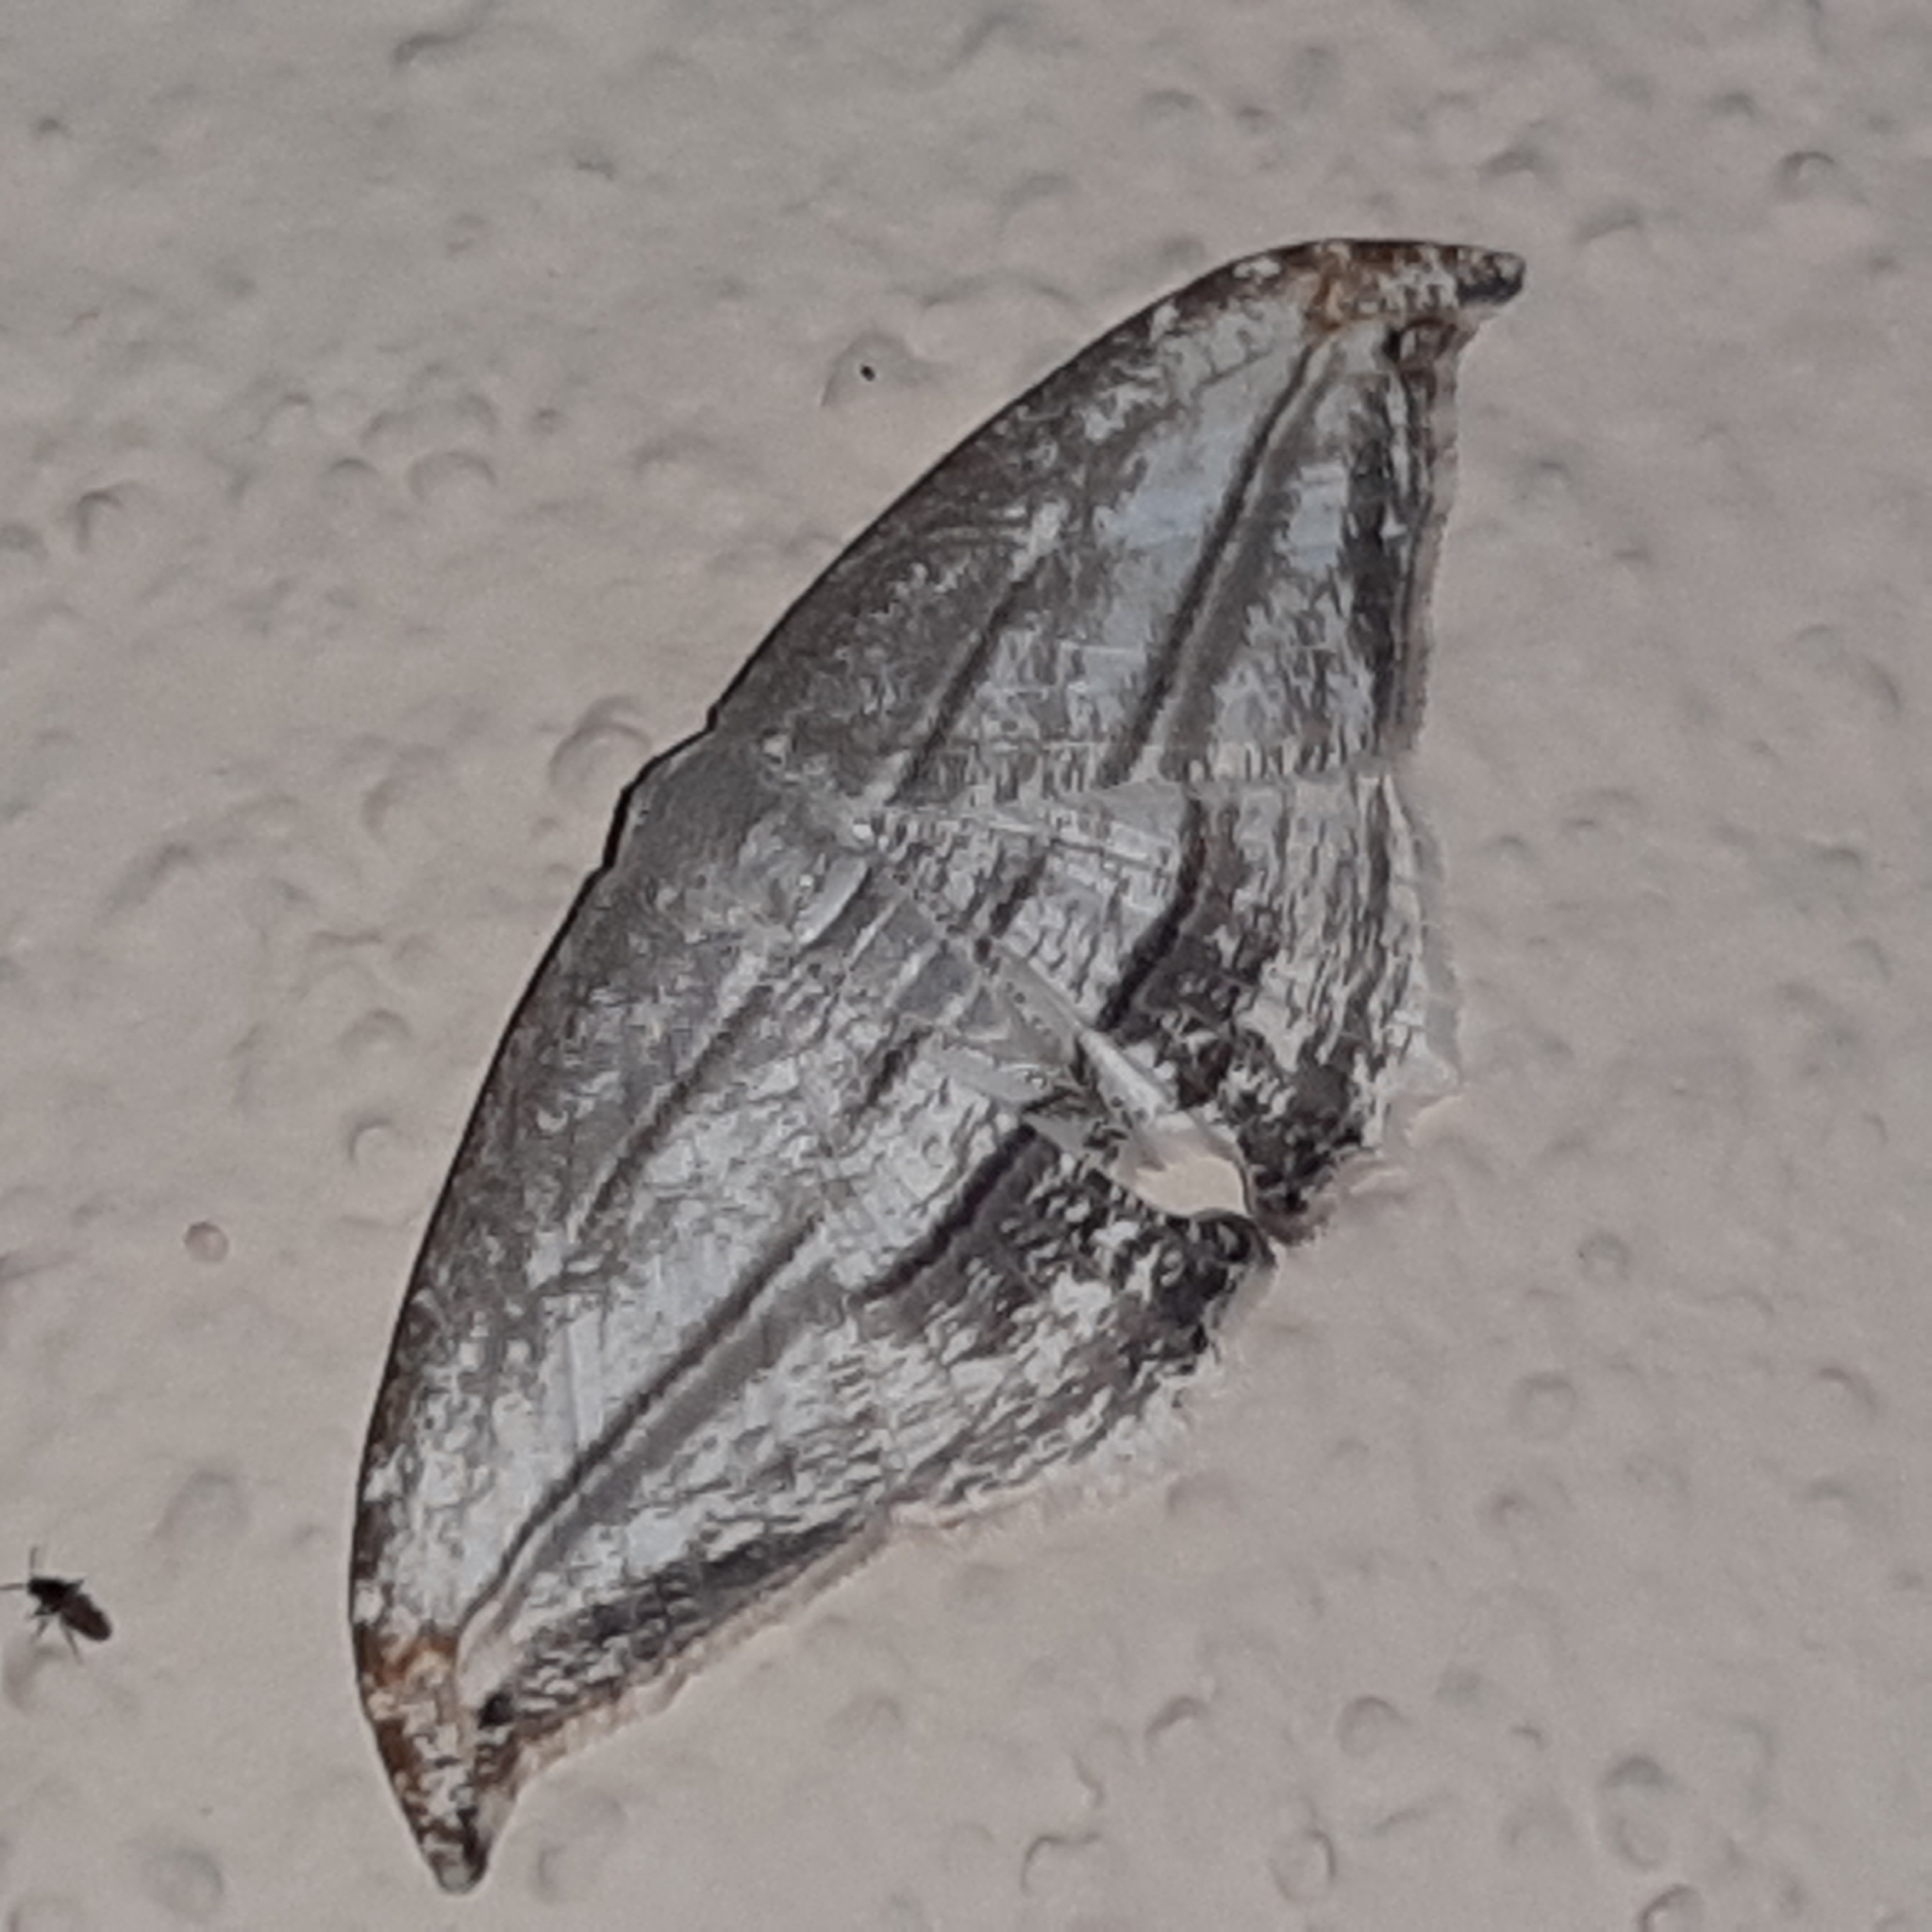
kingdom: Animalia
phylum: Arthropoda
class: Insecta
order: Lepidoptera
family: Uraniidae
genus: Morphomima
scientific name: Morphomima fulvitacta
